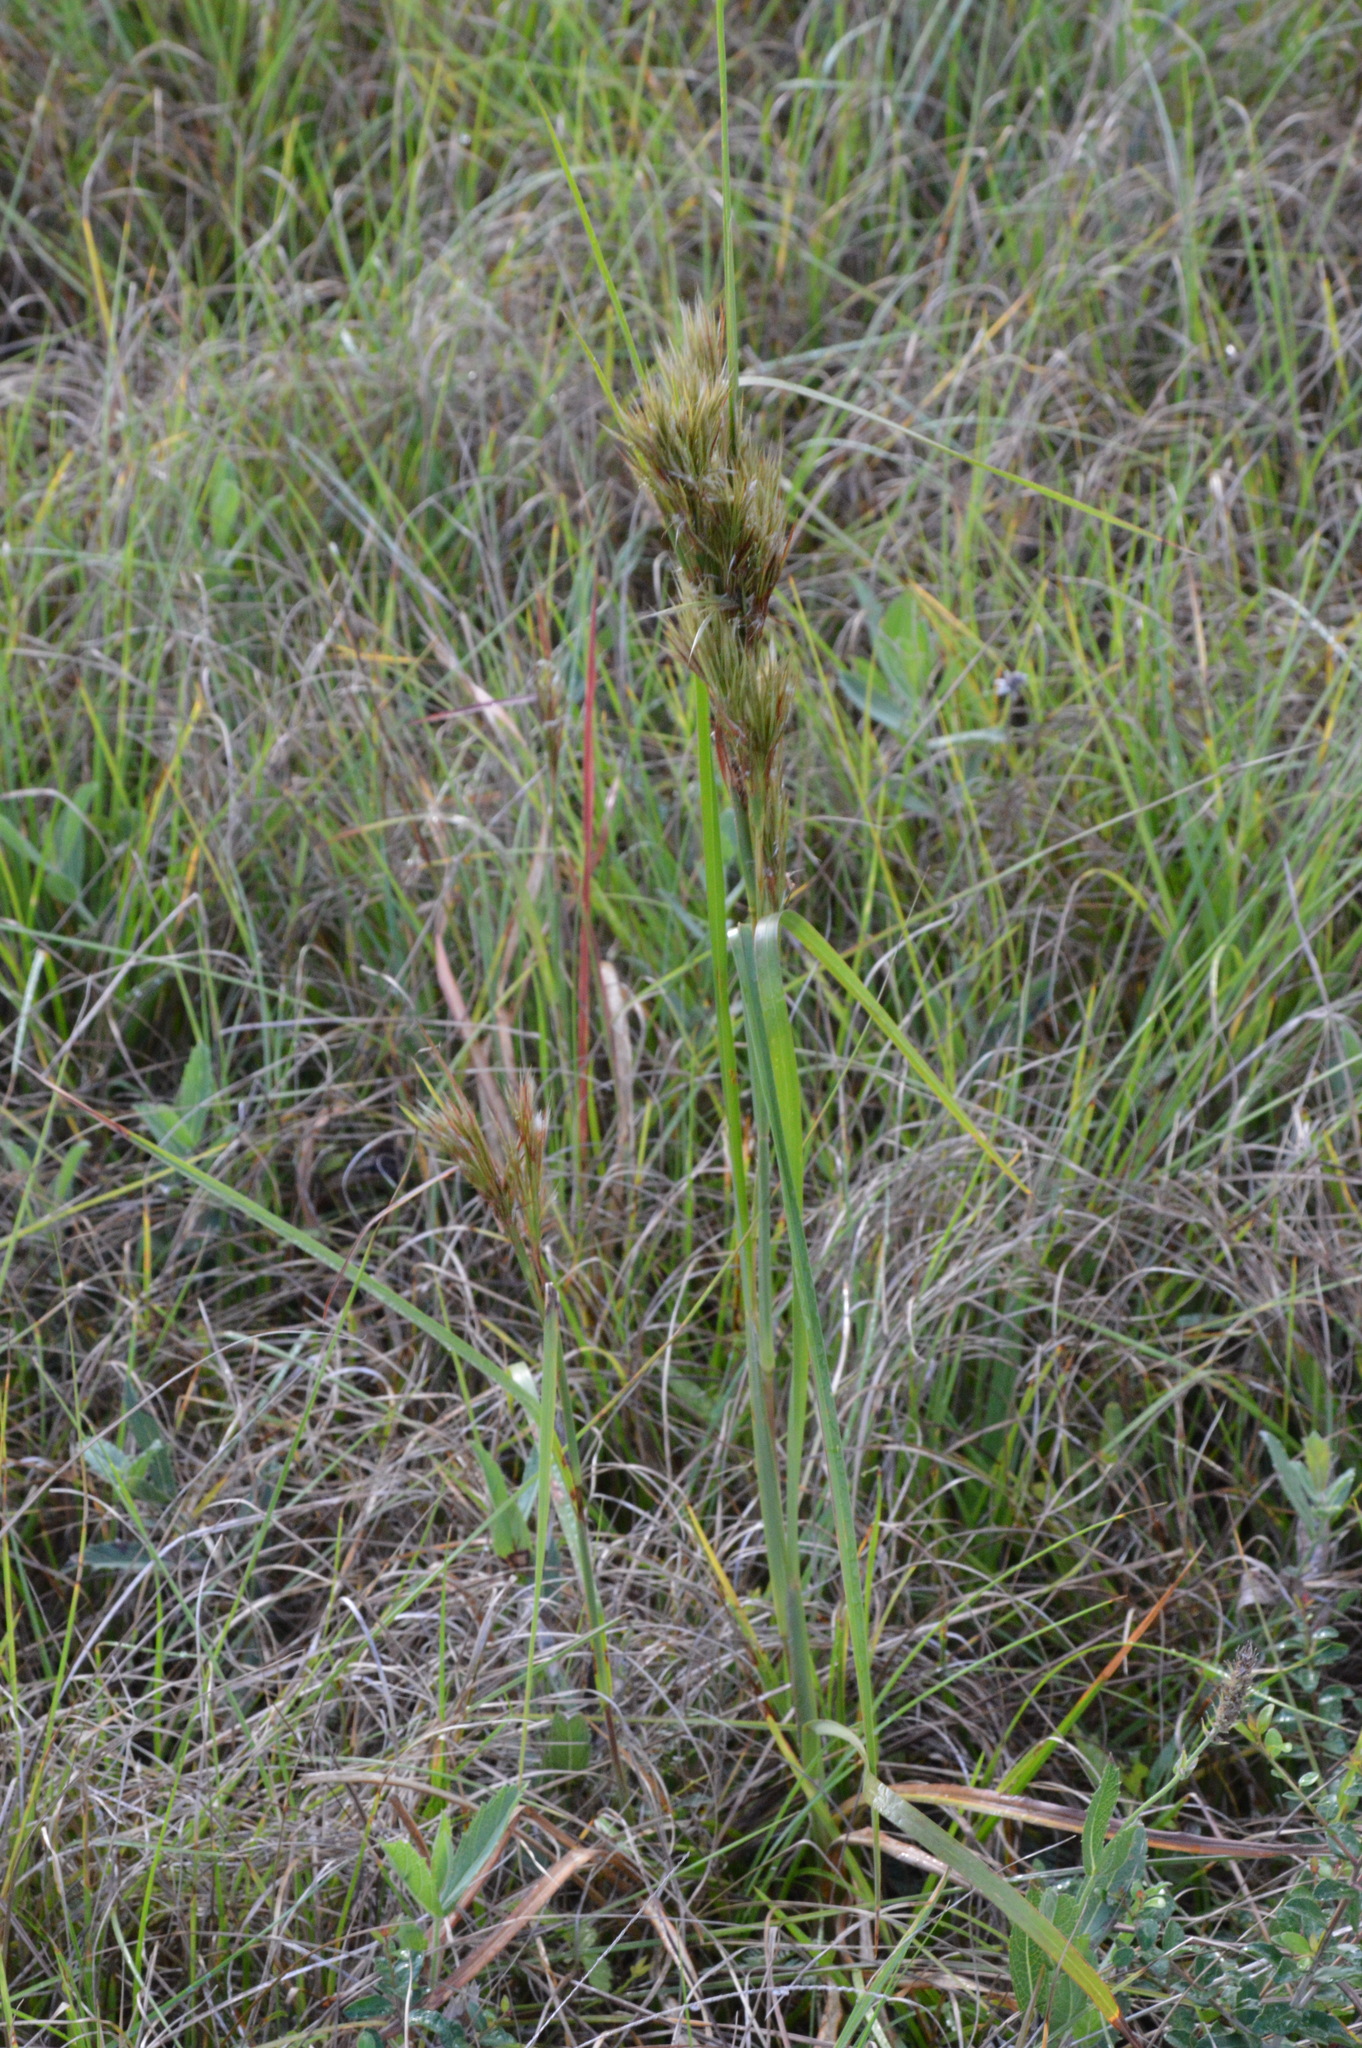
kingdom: Plantae
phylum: Tracheophyta
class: Liliopsida
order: Poales
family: Poaceae
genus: Andropogon
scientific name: Andropogon tenuispatheus
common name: Bushy bluestem
